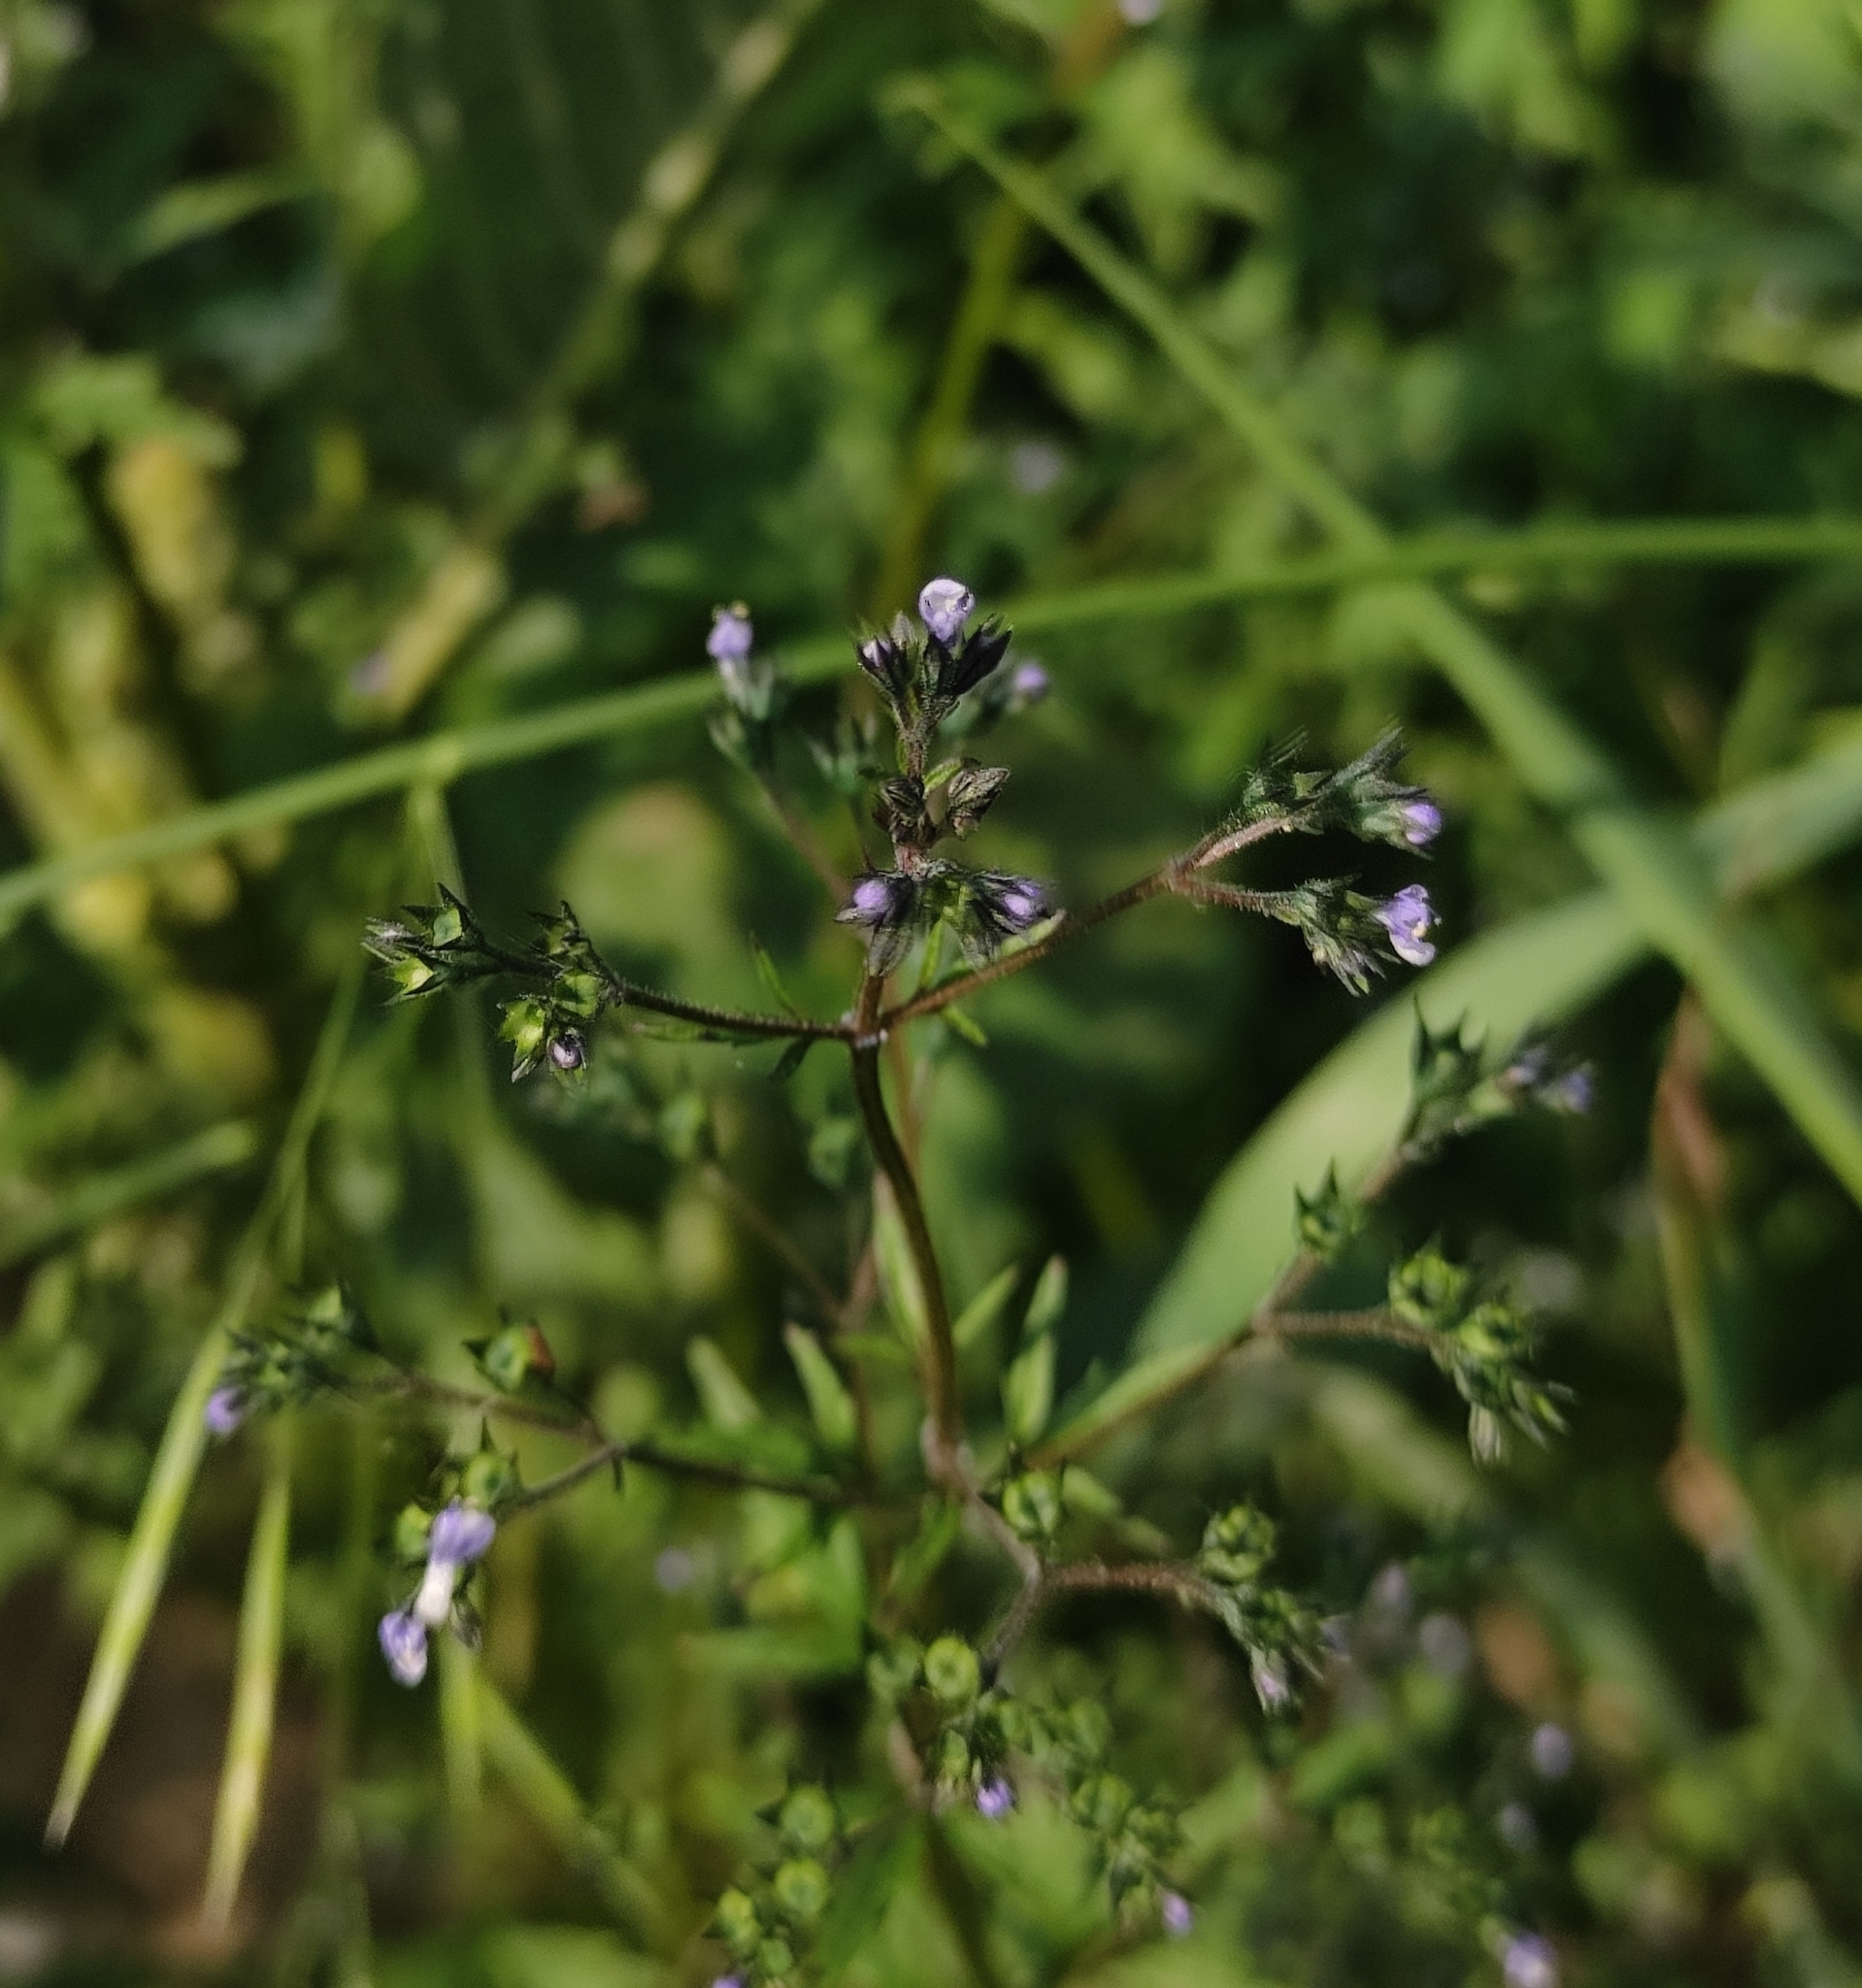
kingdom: Plantae
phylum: Tracheophyta
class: Magnoliopsida
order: Lamiales
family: Lamiaceae
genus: Amethystea
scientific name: Amethystea caerulea
